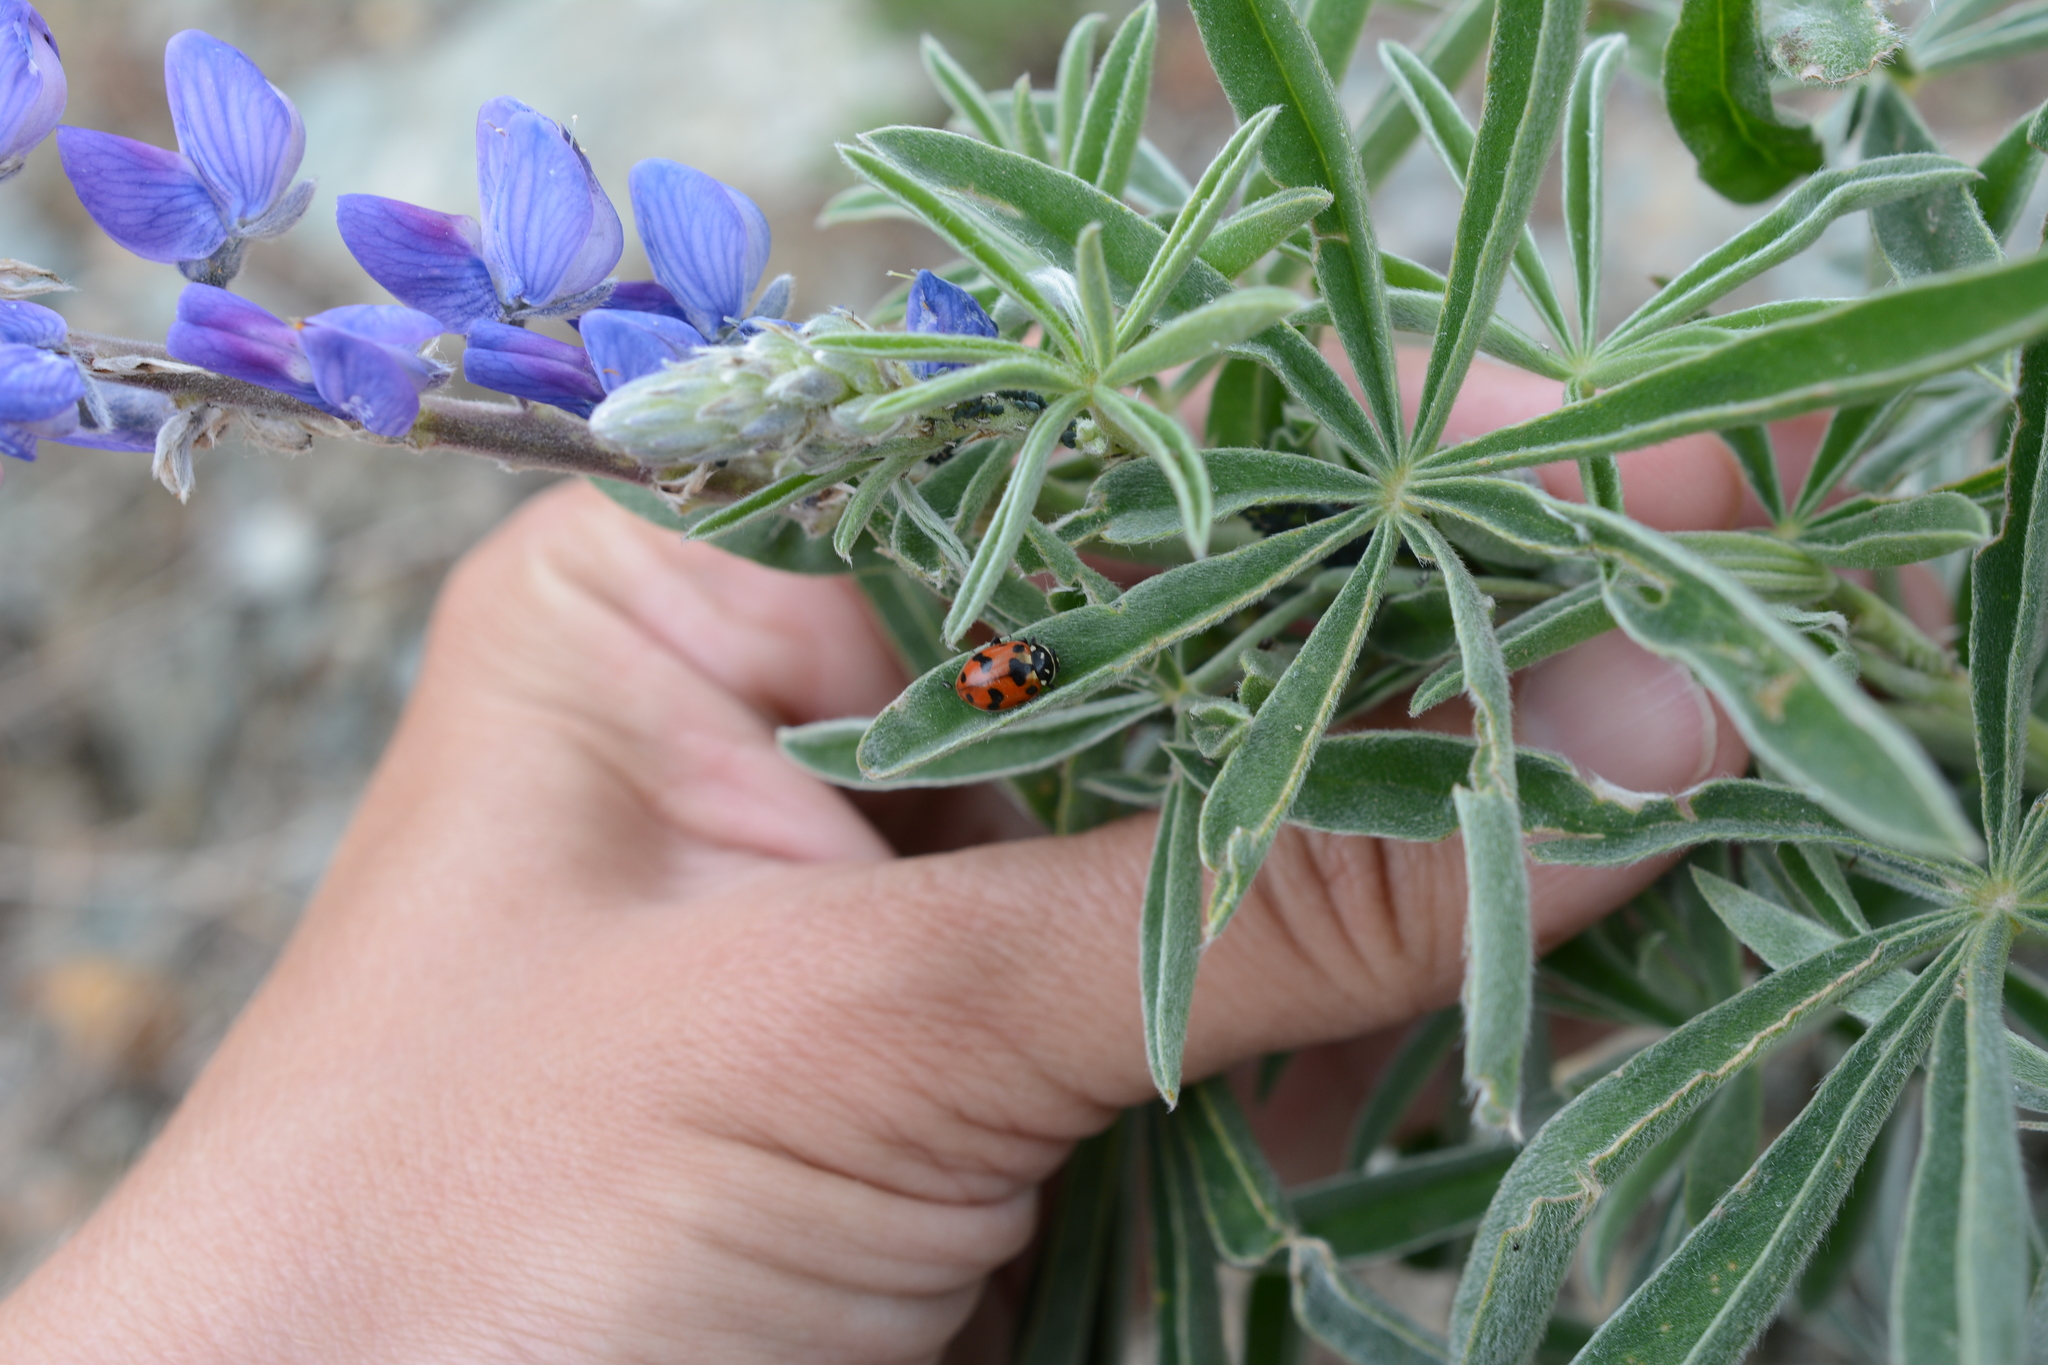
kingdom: Animalia
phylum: Arthropoda
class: Insecta
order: Coleoptera
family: Coccinellidae
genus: Hippodamia
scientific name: Hippodamia caseyi
